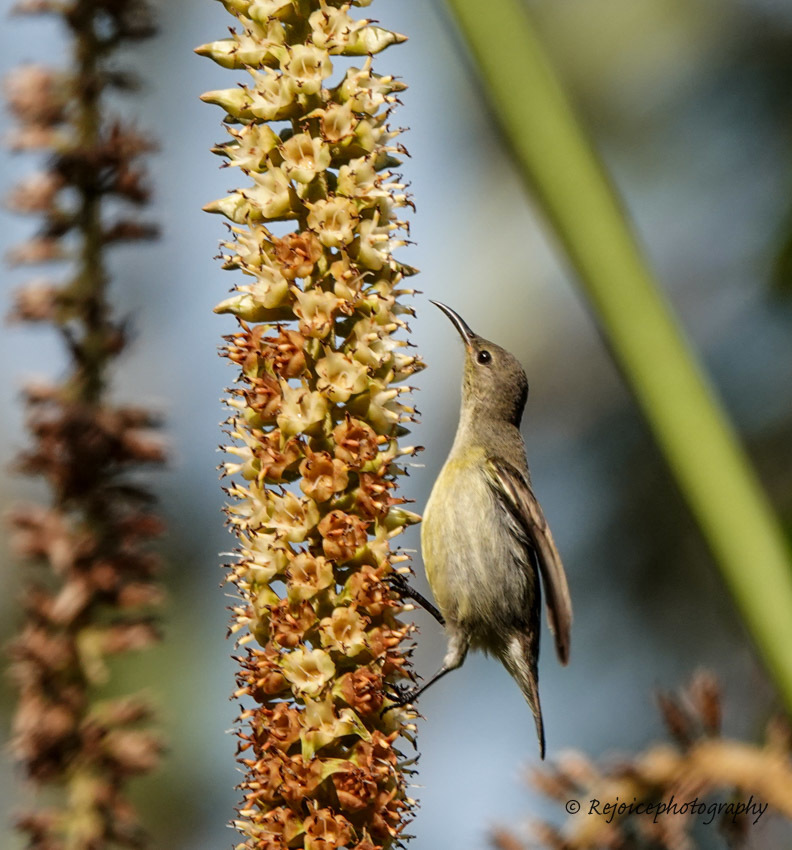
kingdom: Animalia
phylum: Chordata
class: Aves
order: Passeriformes
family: Nectariniidae
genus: Leptocoma
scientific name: Leptocoma brasiliana
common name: Van hasselt's sunbird
